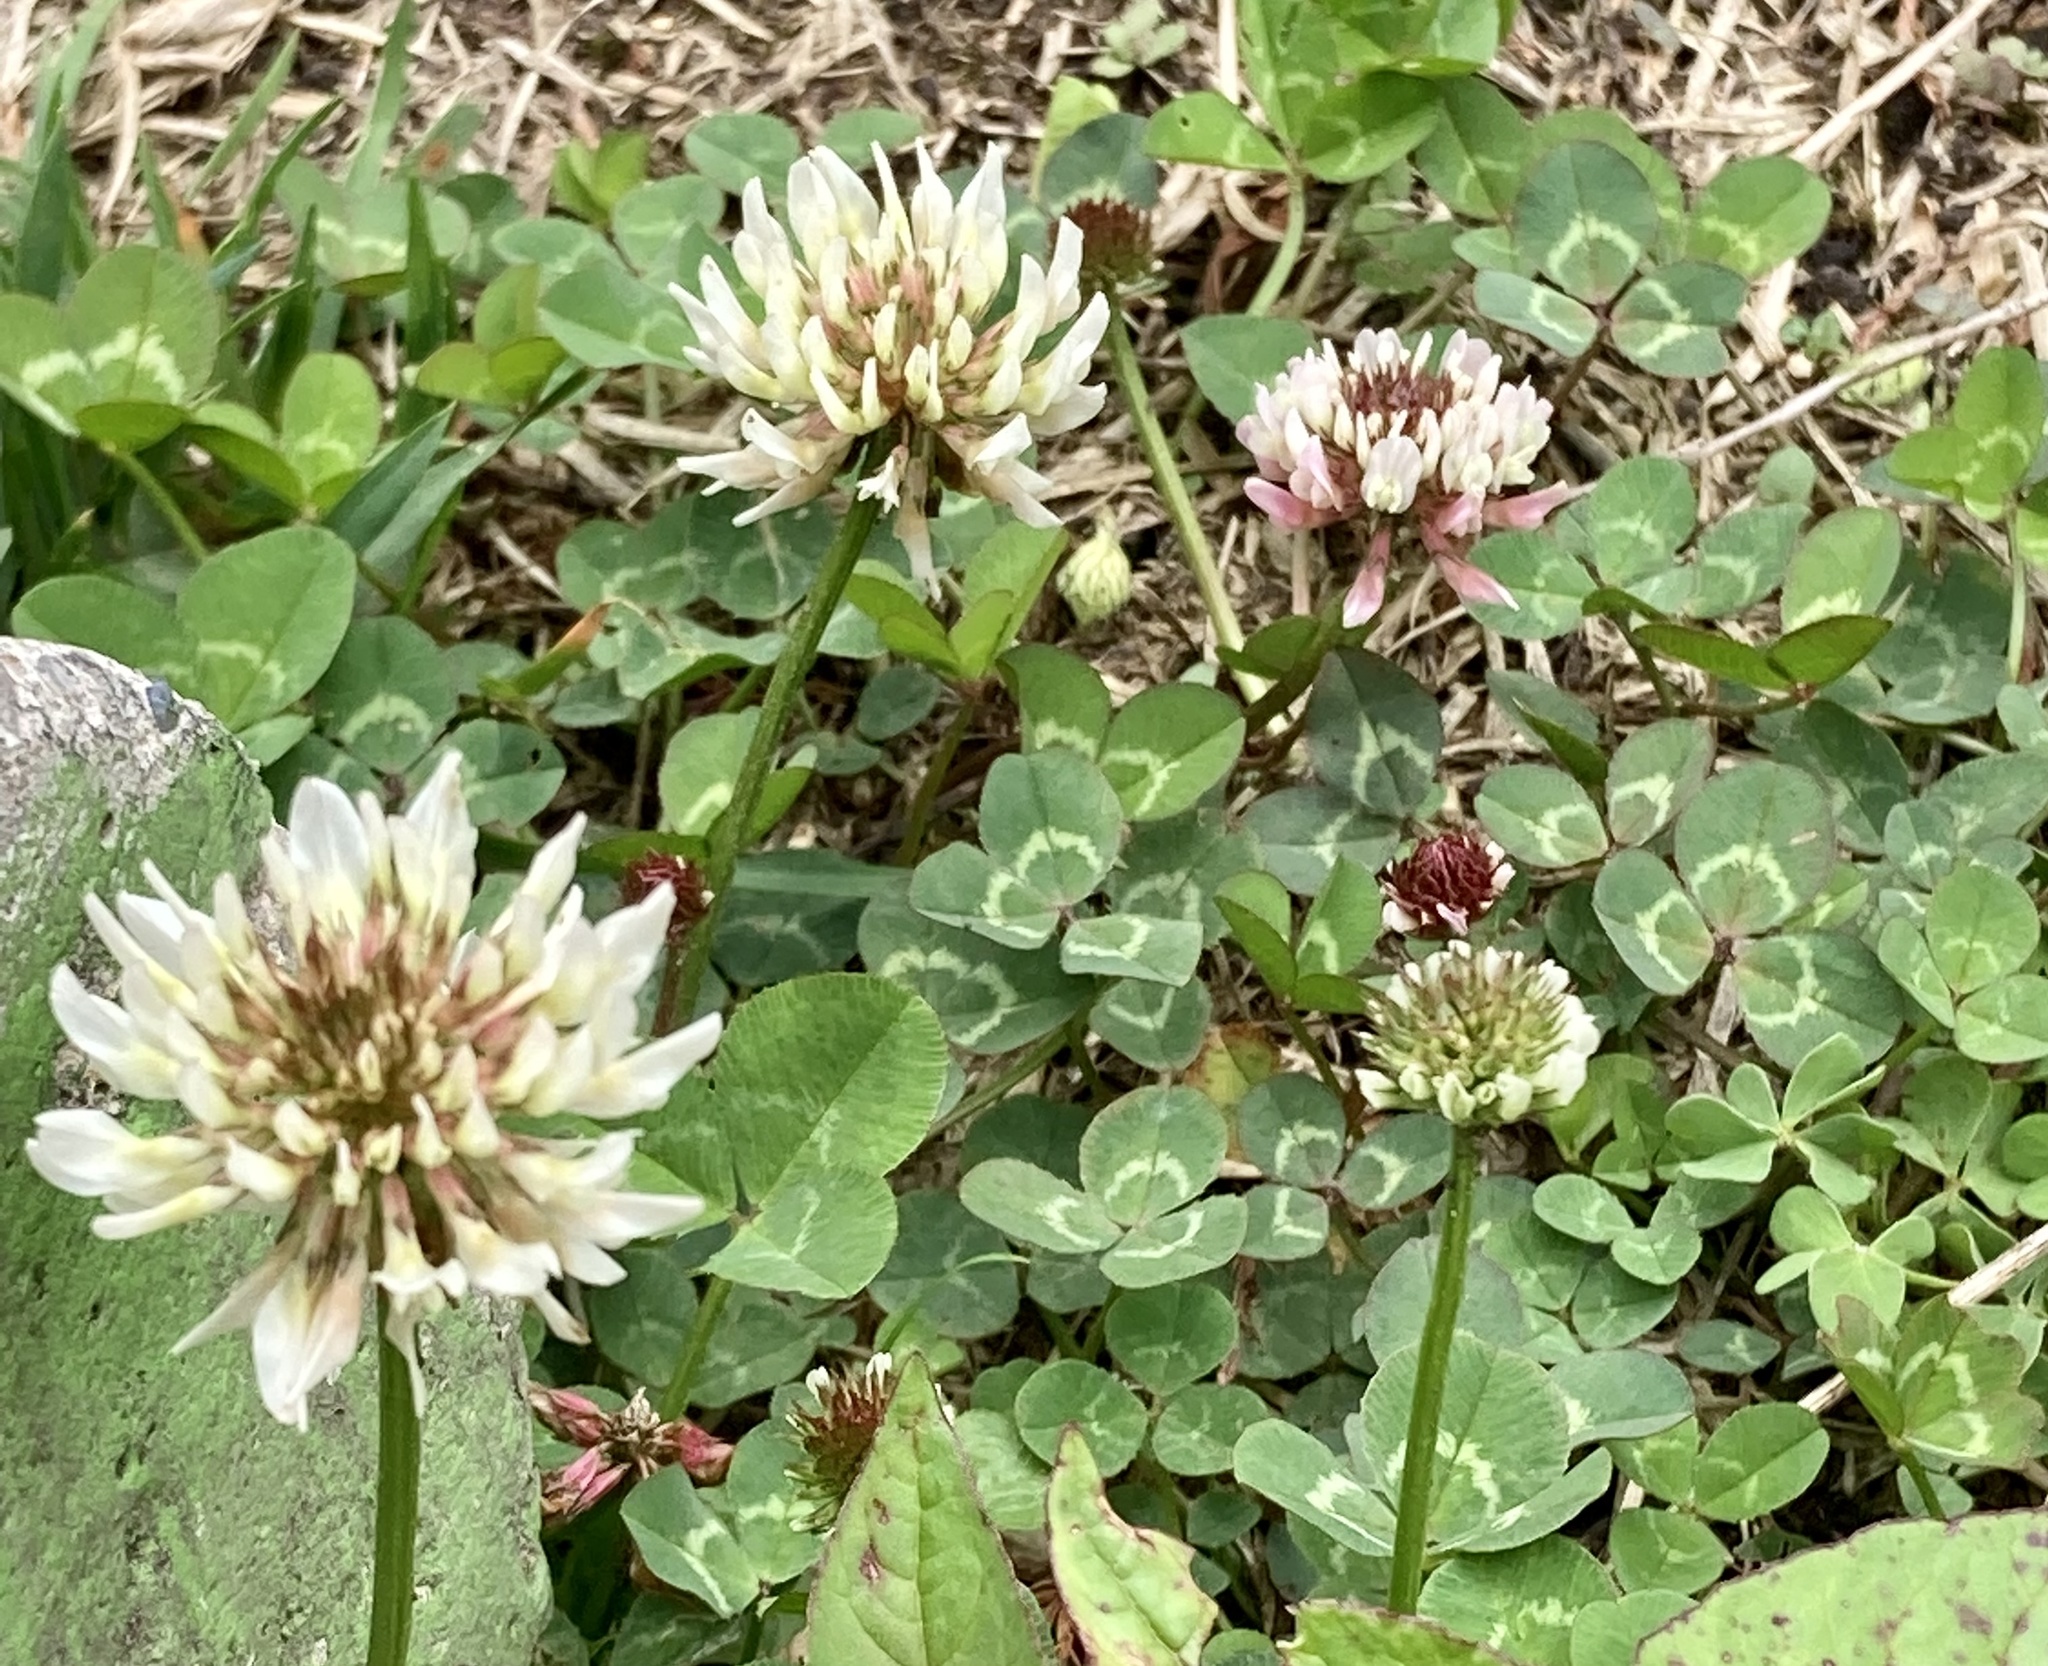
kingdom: Plantae
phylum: Tracheophyta
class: Magnoliopsida
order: Fabales
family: Fabaceae
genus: Trifolium
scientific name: Trifolium repens
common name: White clover
